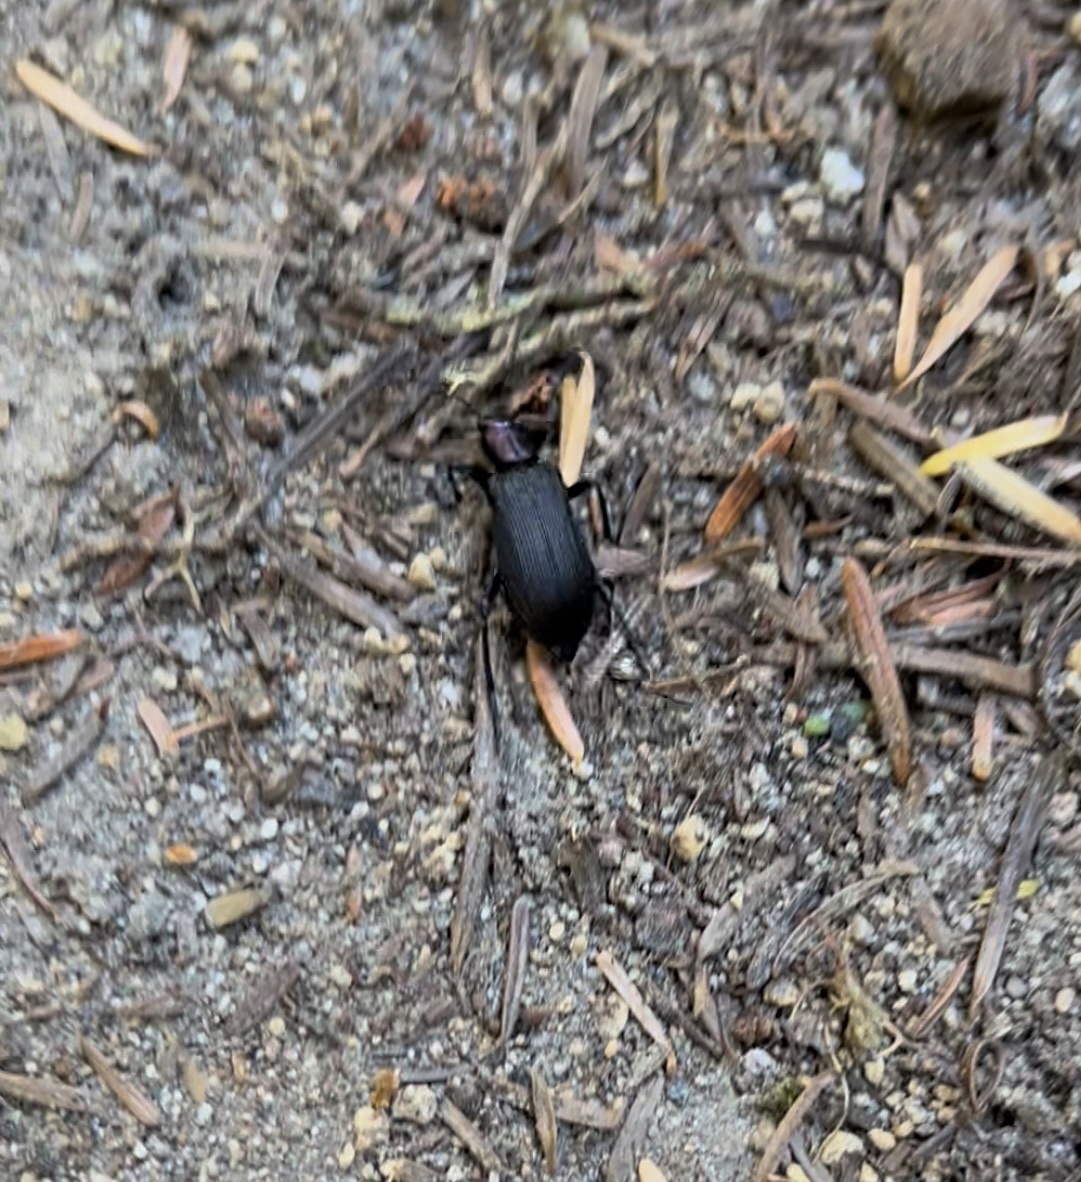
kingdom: Animalia
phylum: Arthropoda
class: Insecta
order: Coleoptera
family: Oedemeridae
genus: Ditylus
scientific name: Ditylus gracilis
